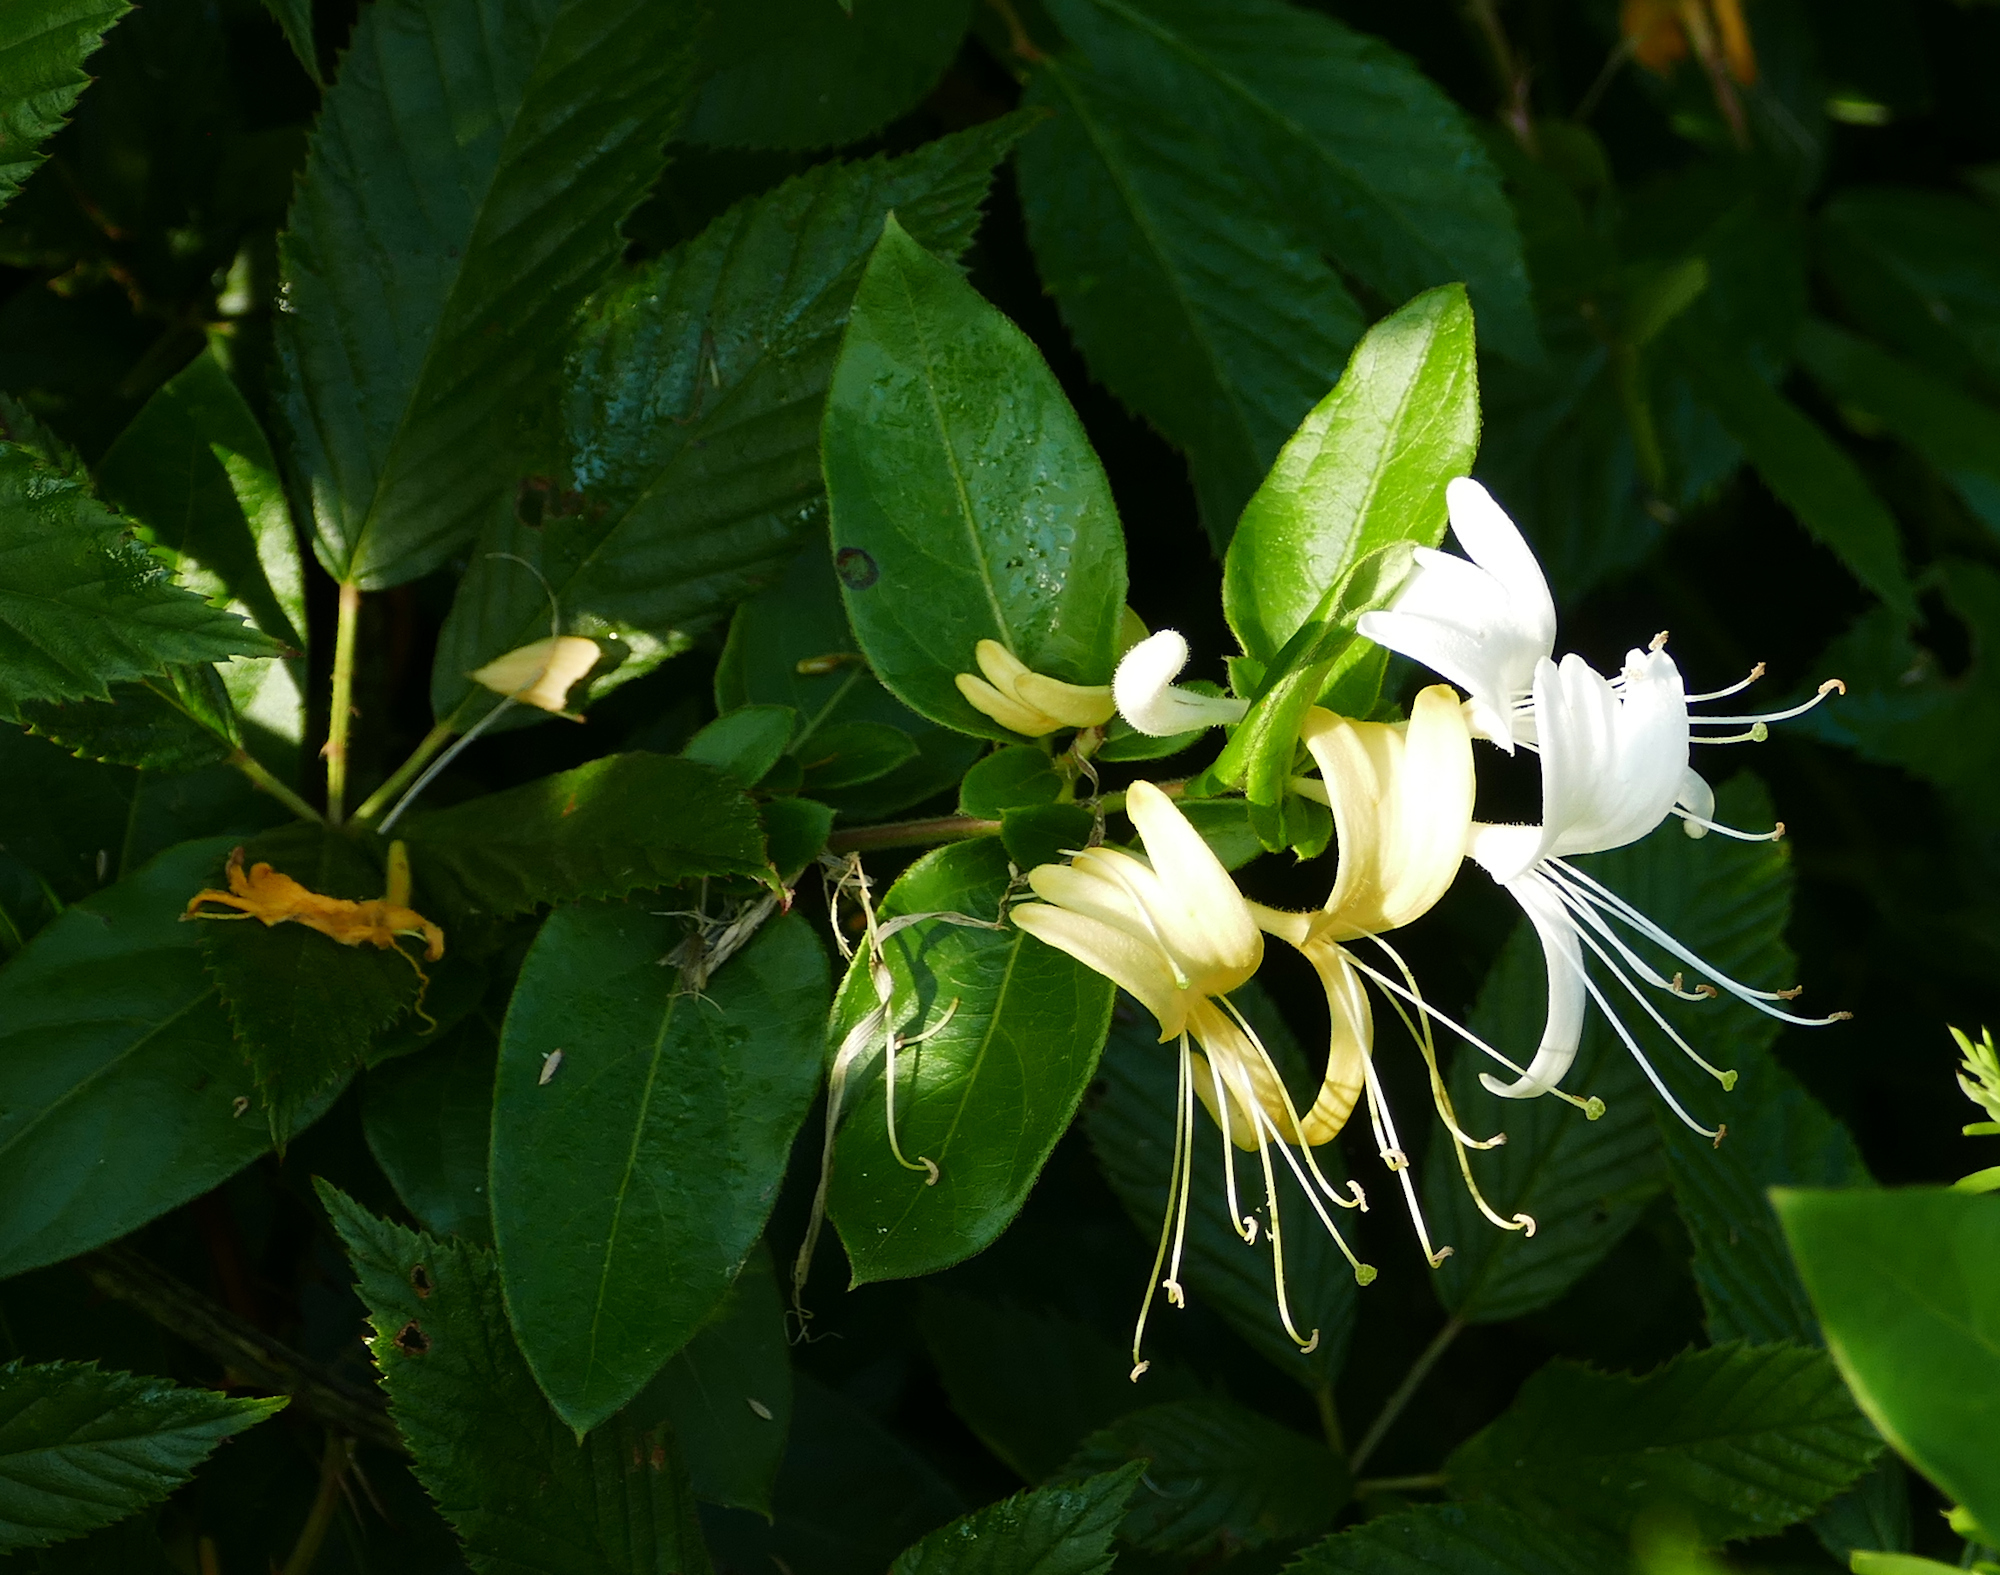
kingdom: Plantae
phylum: Tracheophyta
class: Magnoliopsida
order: Dipsacales
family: Caprifoliaceae
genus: Lonicera
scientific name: Lonicera japonica
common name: Japanese honeysuckle
